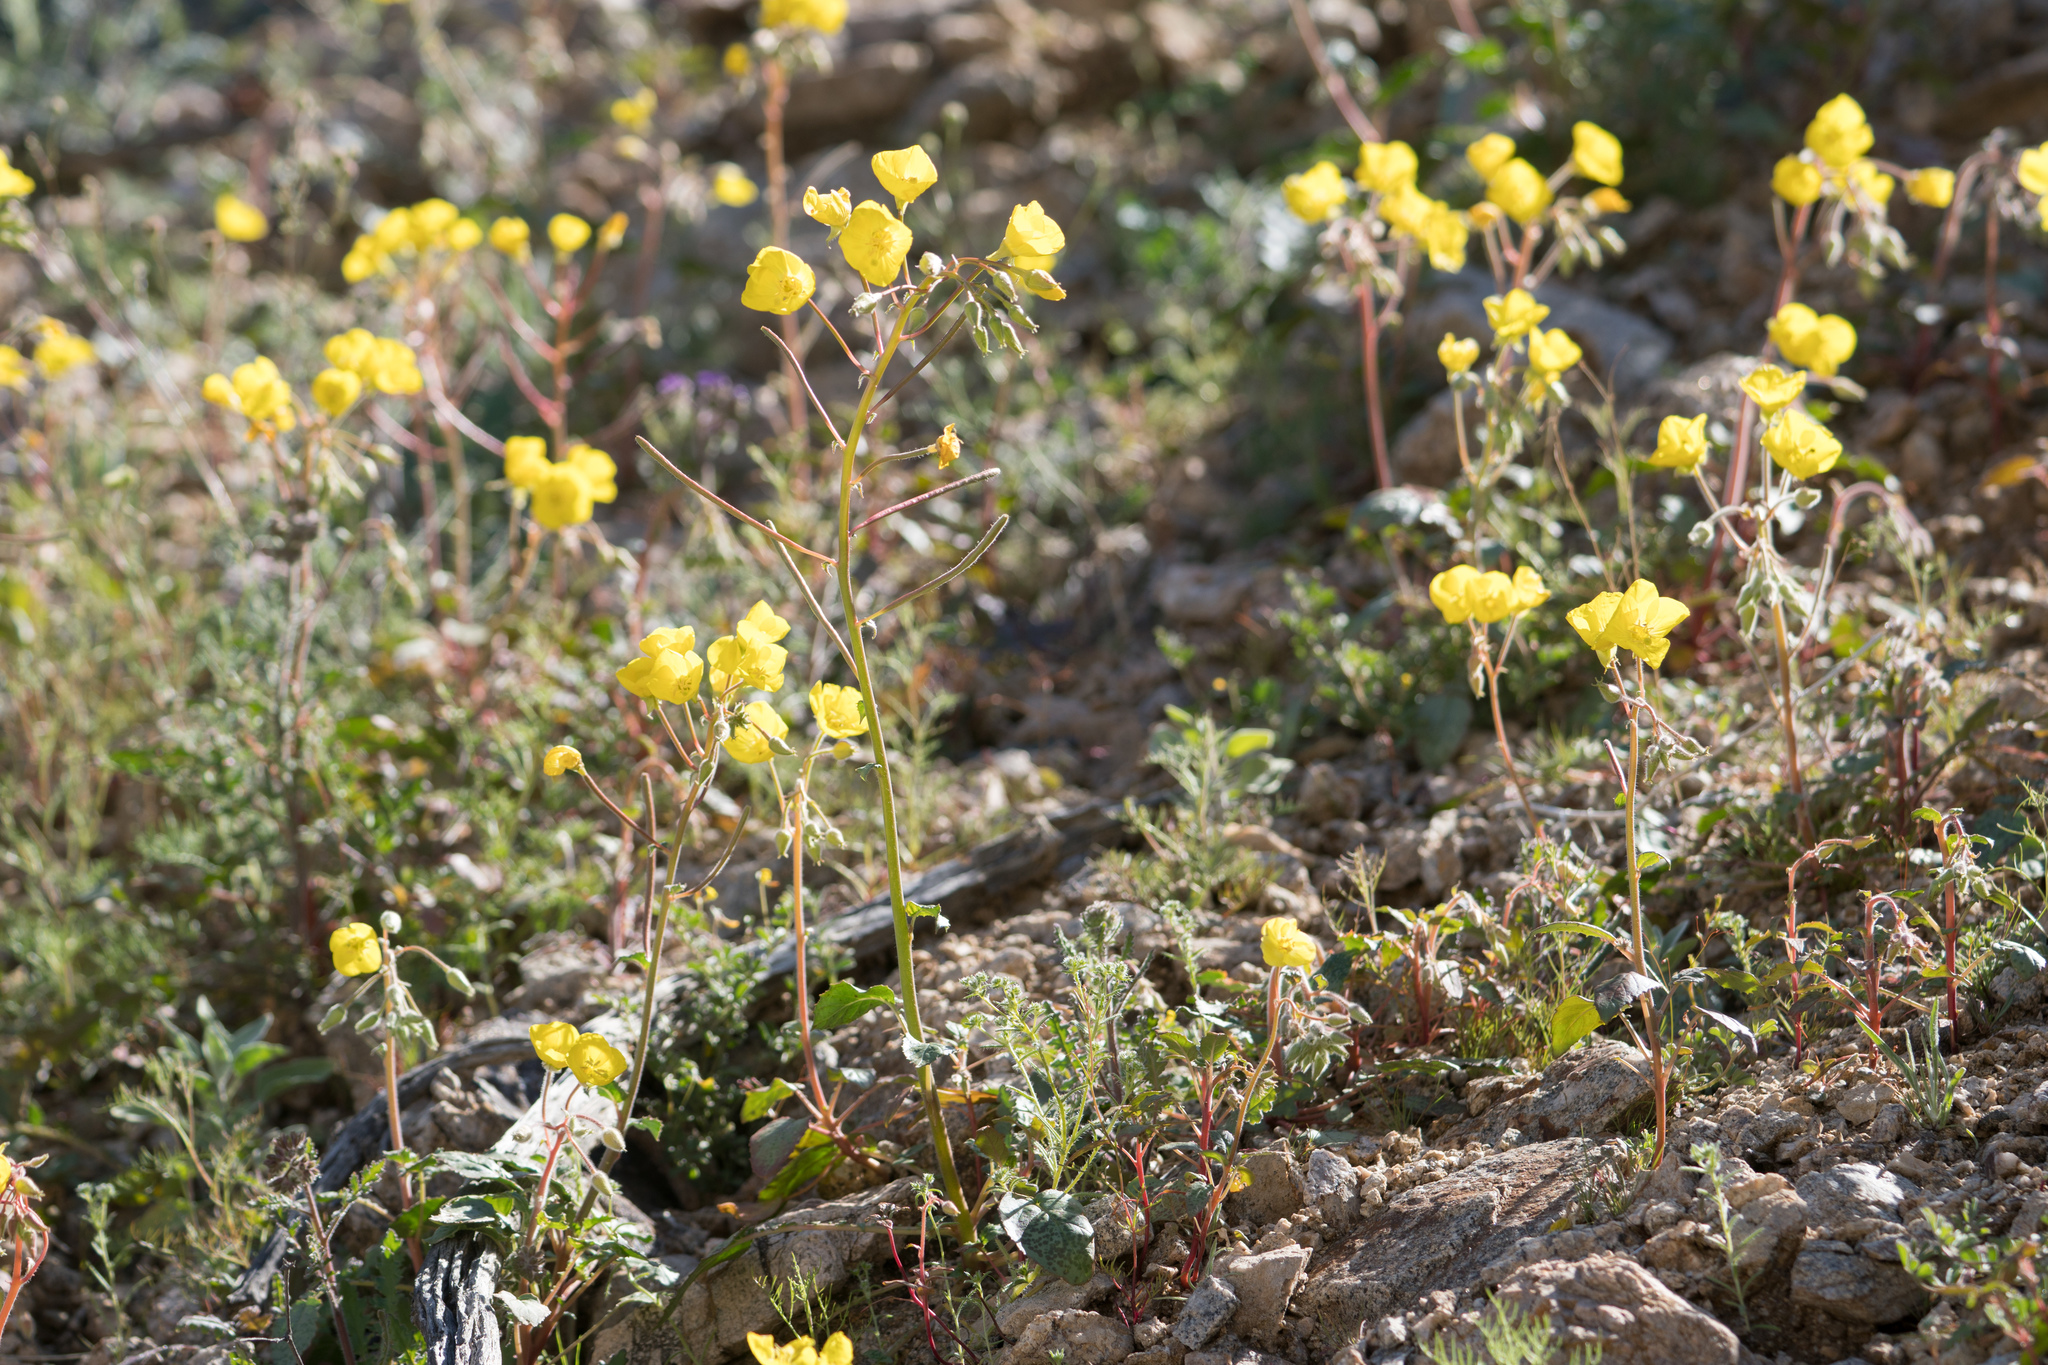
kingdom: Plantae
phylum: Tracheophyta
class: Magnoliopsida
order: Myrtales
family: Onagraceae
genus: Chylismia
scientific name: Chylismia brevipes
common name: Yellow cups
